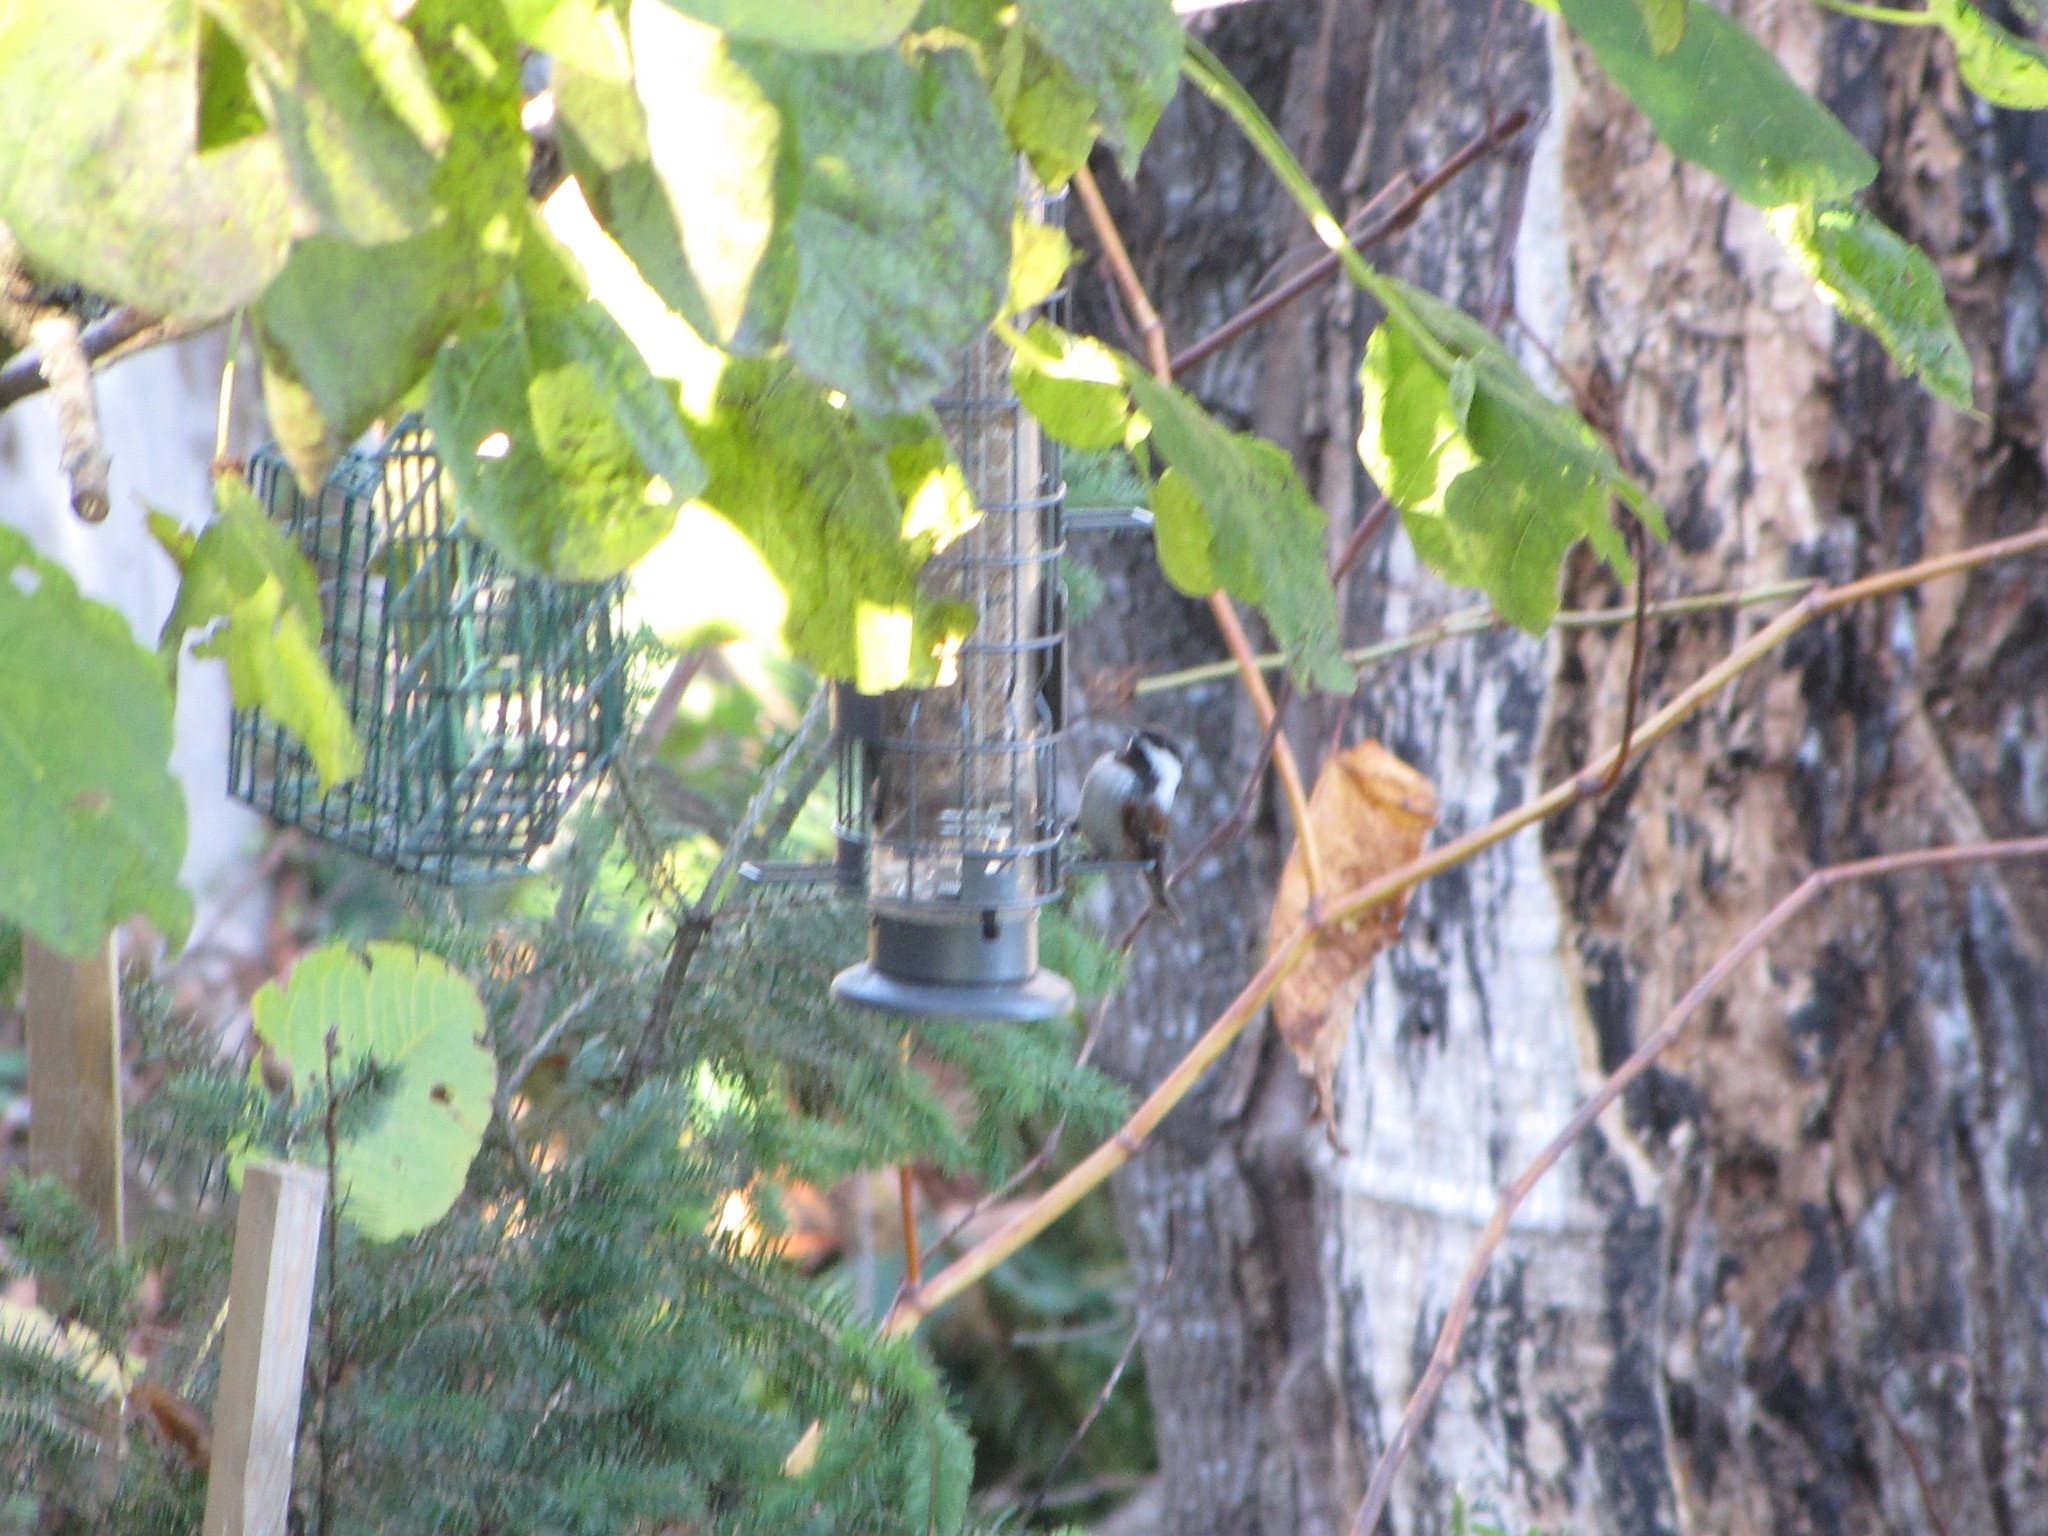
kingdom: Animalia
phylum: Chordata
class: Aves
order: Passeriformes
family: Paridae
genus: Poecile
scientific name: Poecile rufescens
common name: Chestnut-backed chickadee
